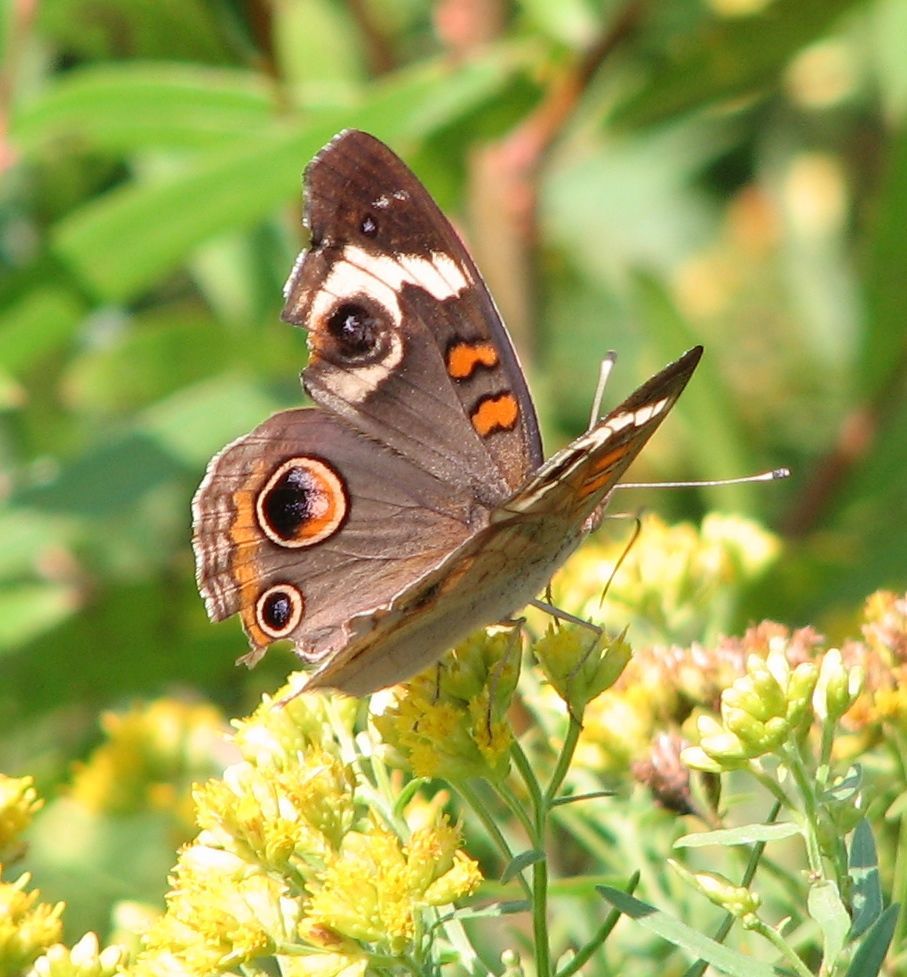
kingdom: Animalia
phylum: Arthropoda
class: Insecta
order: Lepidoptera
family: Nymphalidae
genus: Junonia
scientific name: Junonia coenia
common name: Common buckeye
